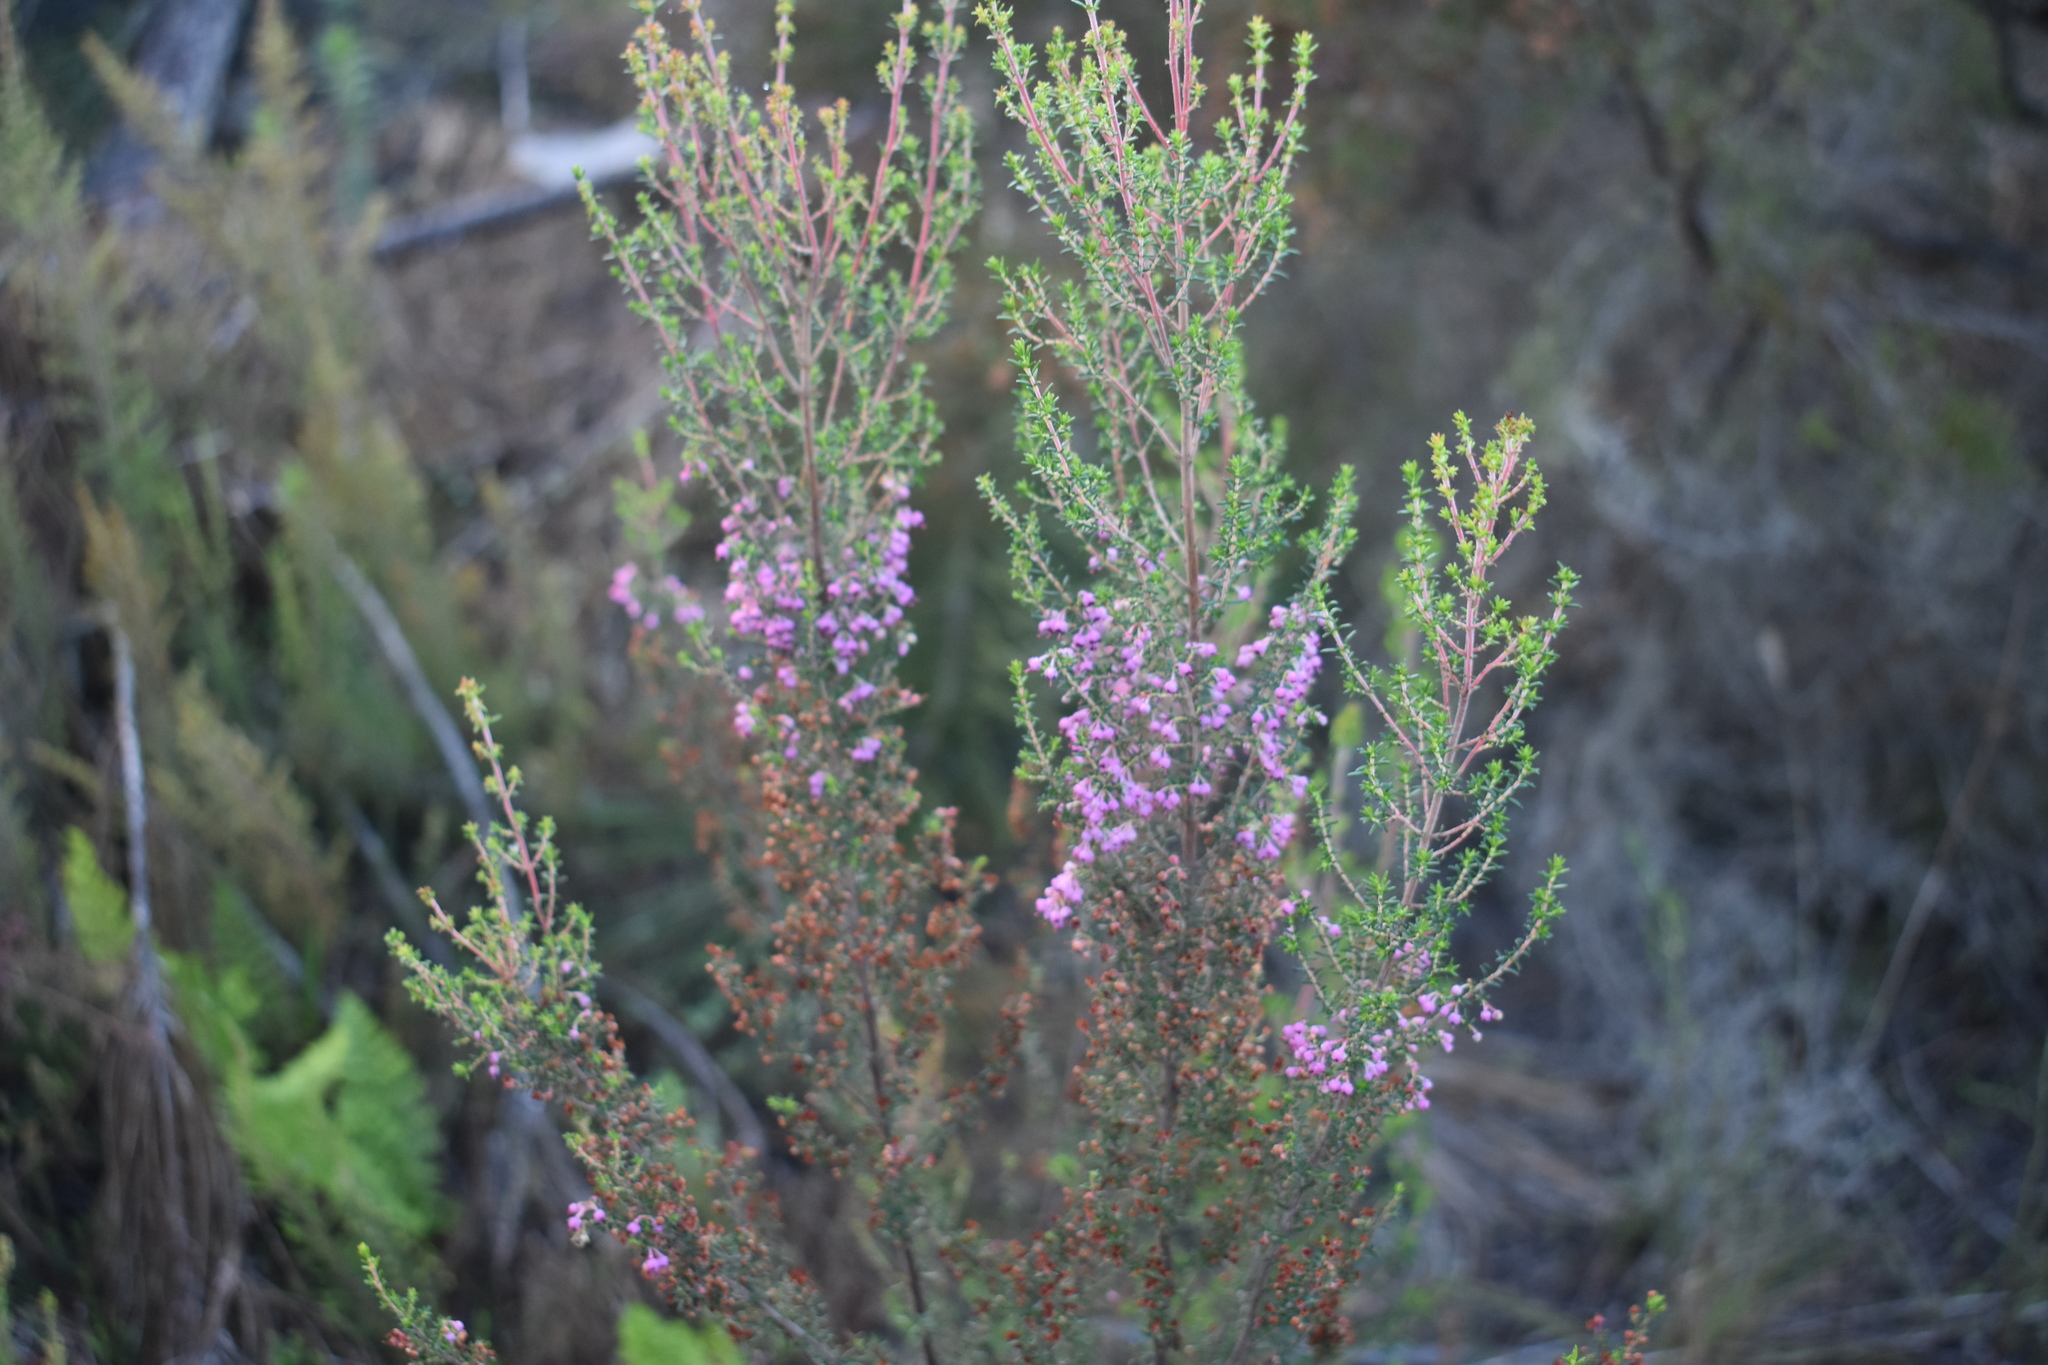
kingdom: Plantae
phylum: Tracheophyta
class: Magnoliopsida
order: Ericales
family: Ericaceae
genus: Erica
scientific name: Erica sparsa
